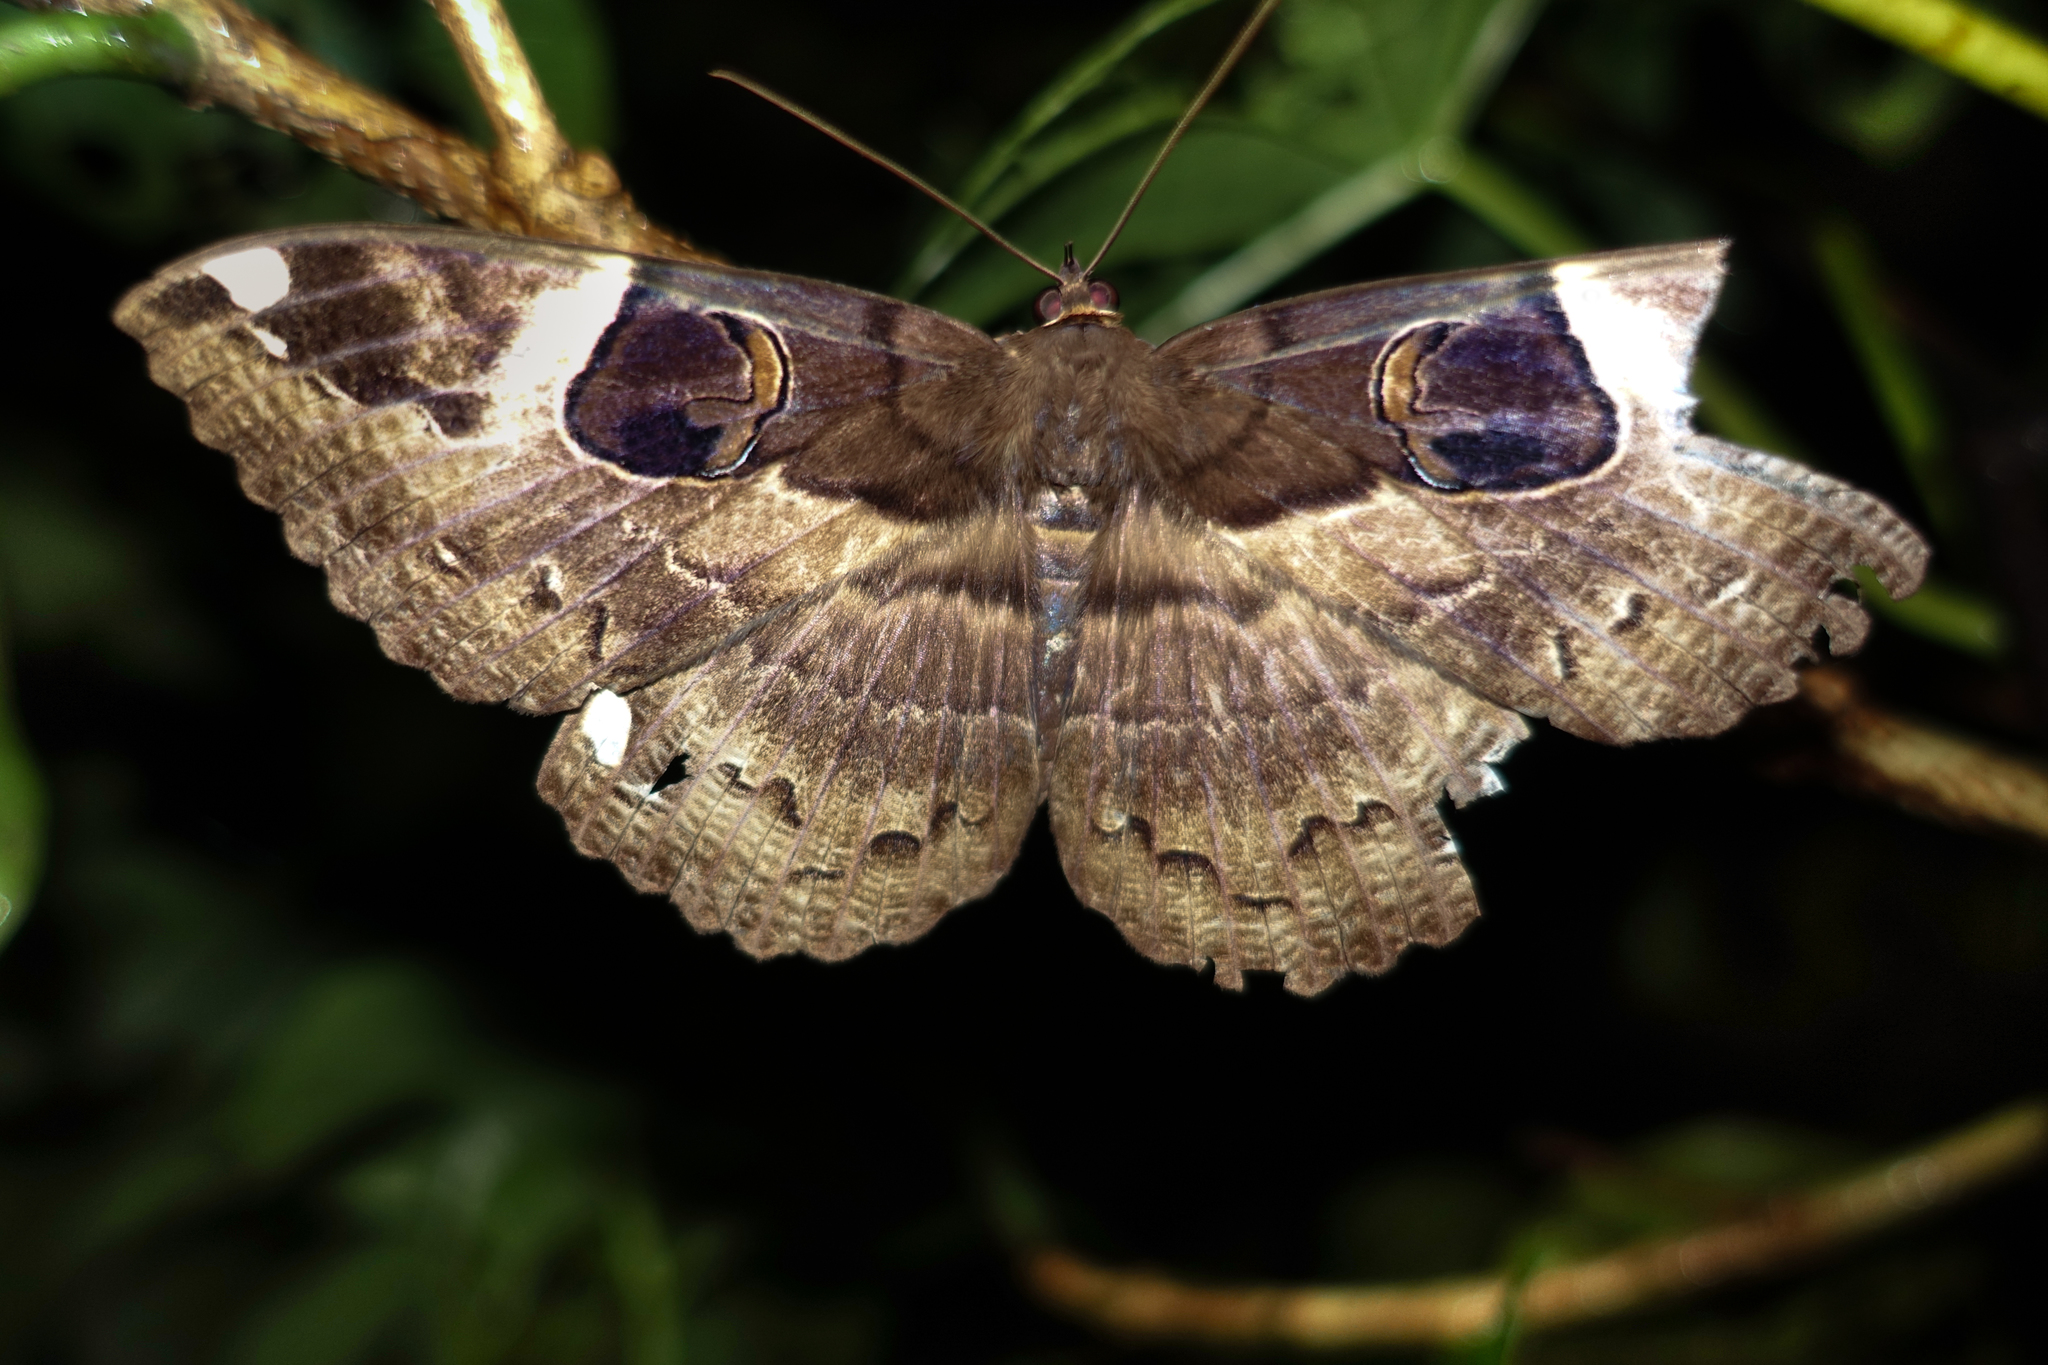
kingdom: Animalia
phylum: Arthropoda
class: Insecta
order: Lepidoptera
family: Erebidae
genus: Erebus
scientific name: Erebus crepuscularis
